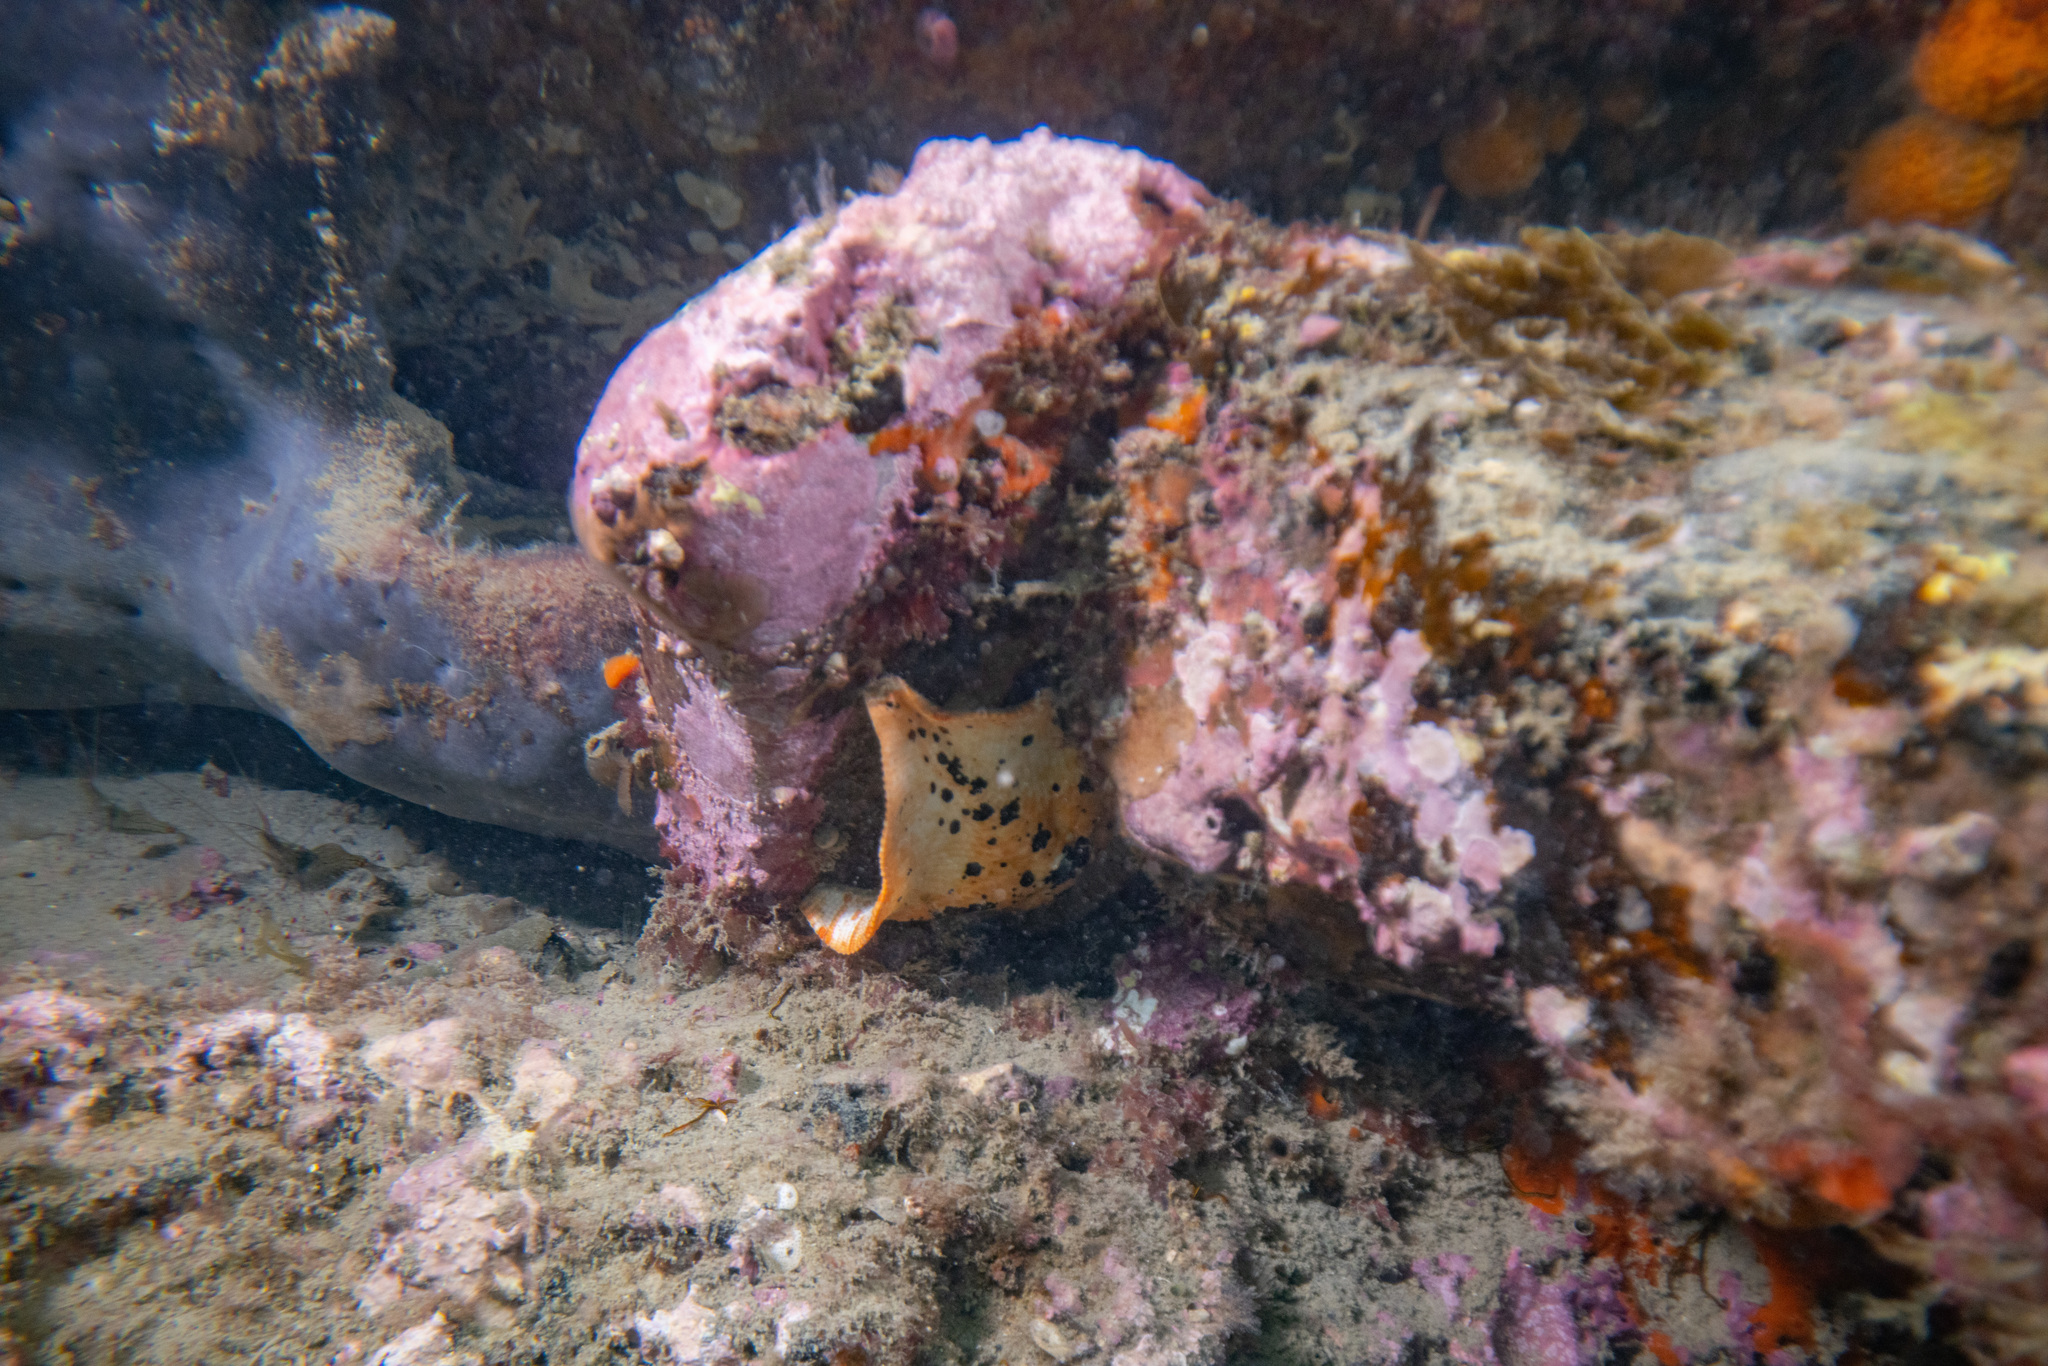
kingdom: Animalia
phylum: Echinodermata
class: Asteroidea
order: Valvatida
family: Asterinidae
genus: Stegnaster
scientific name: Stegnaster inflatus
